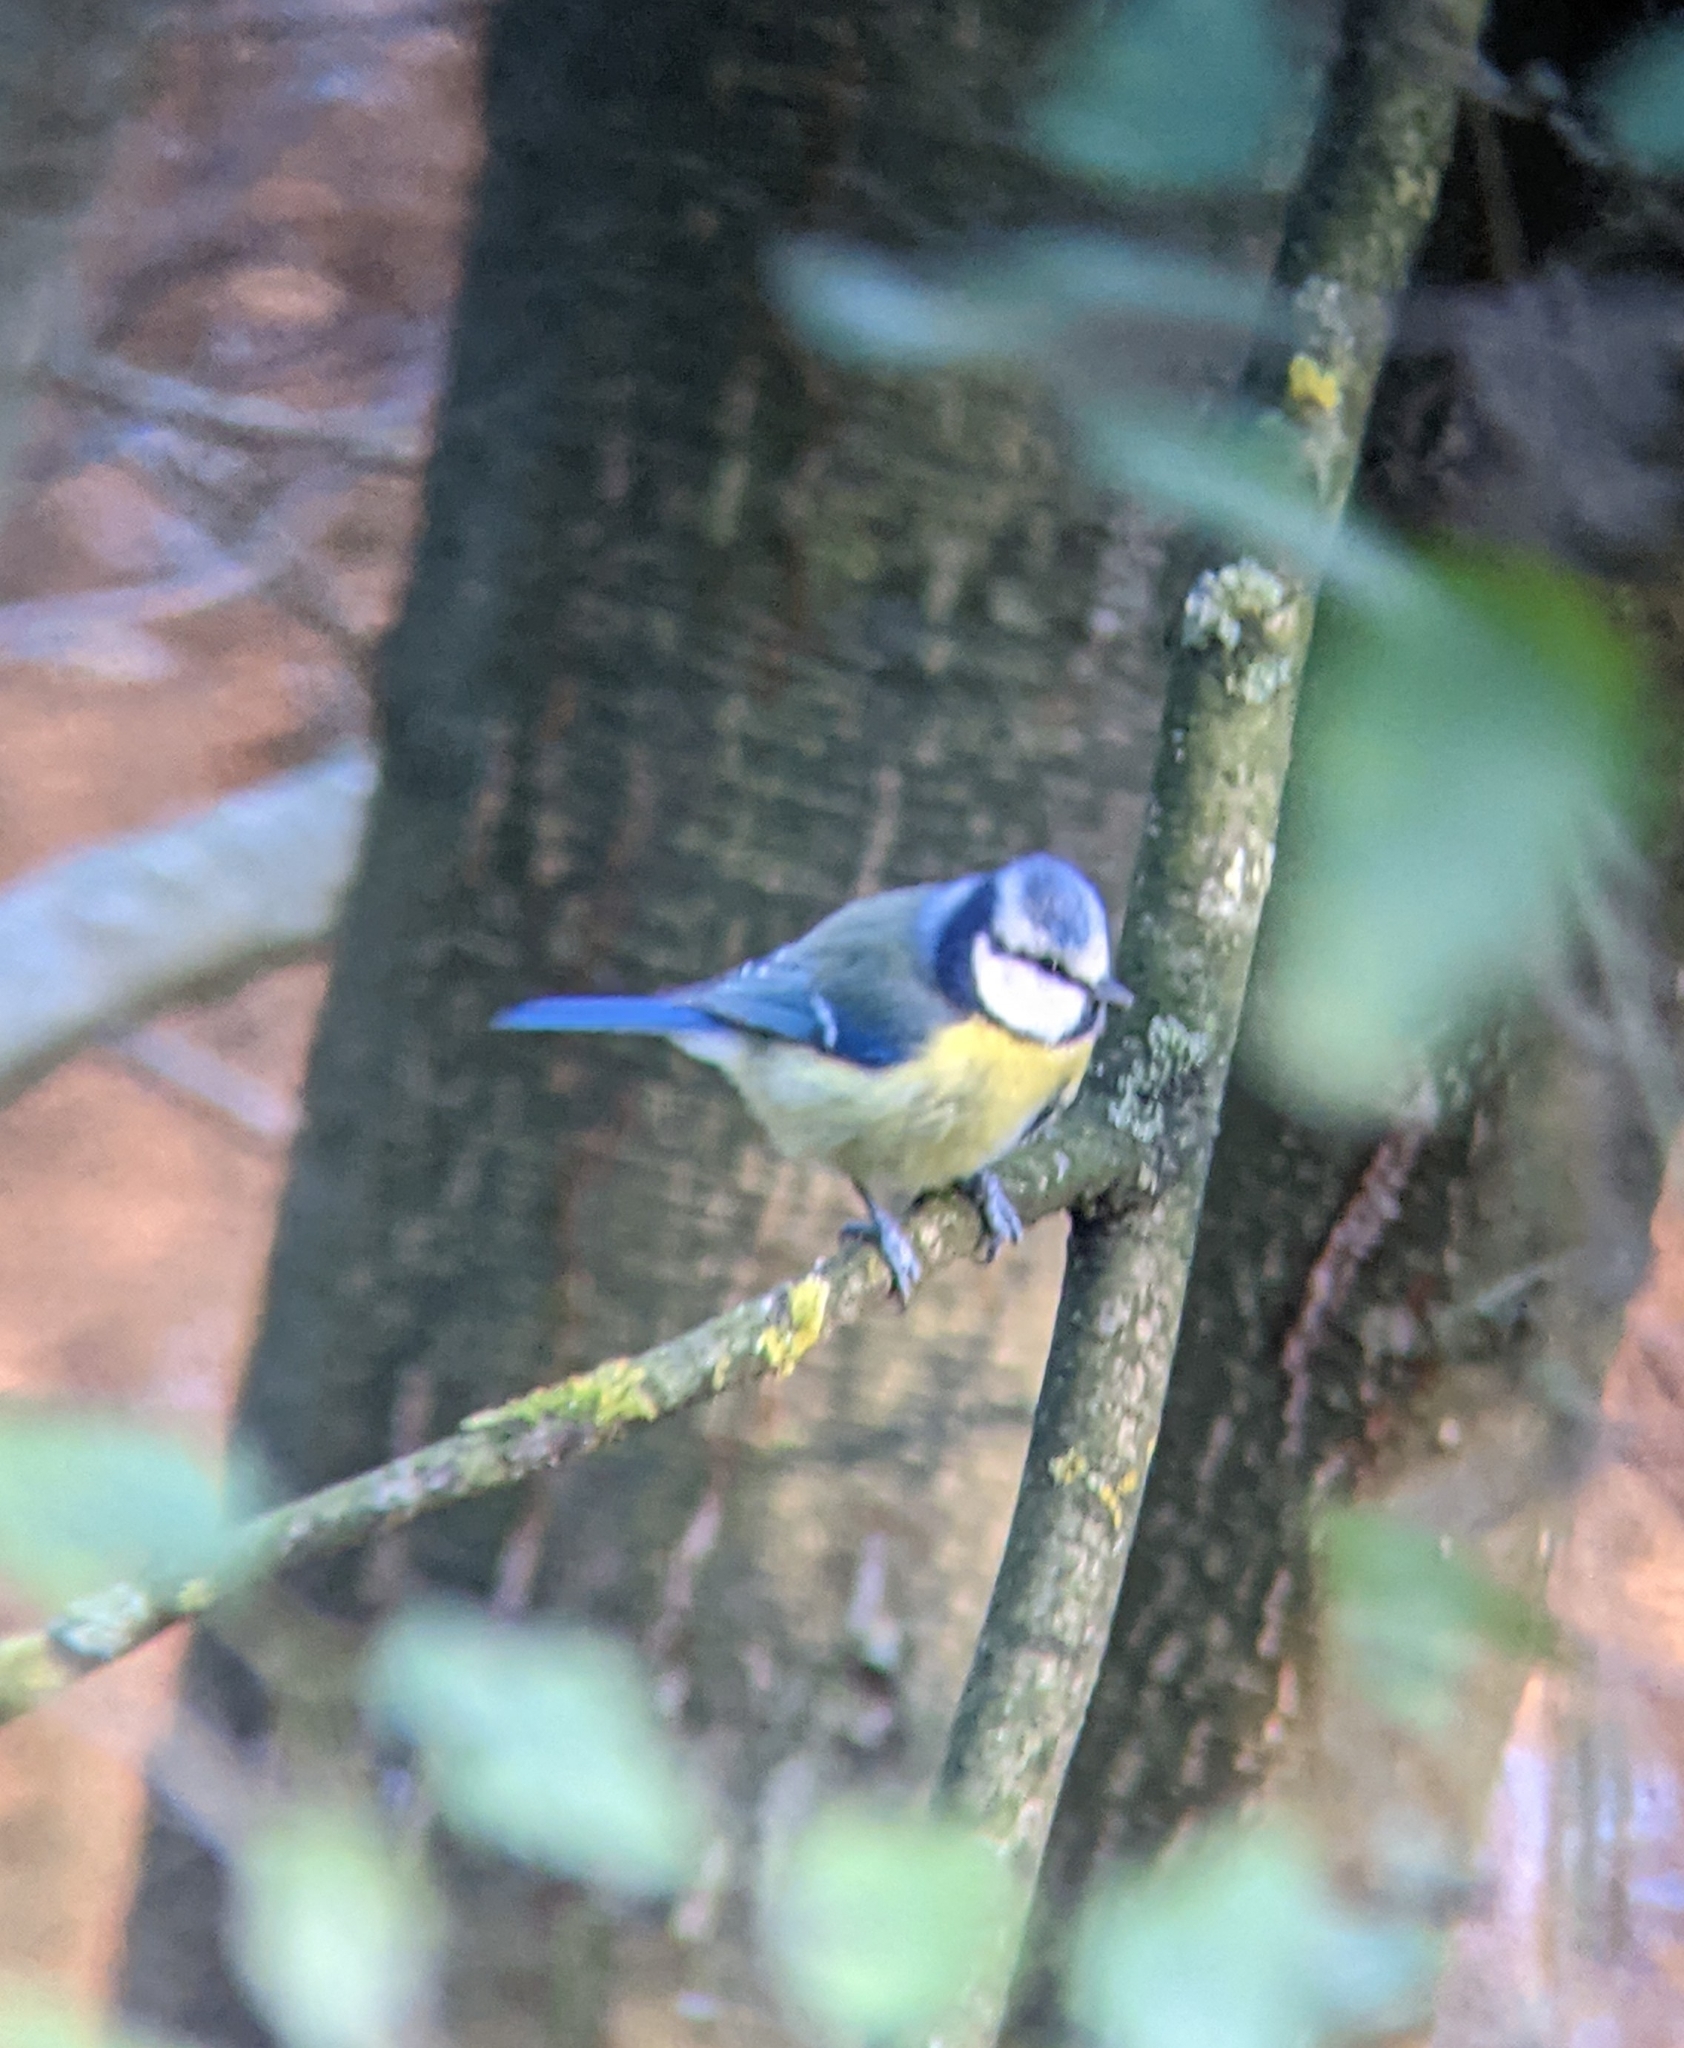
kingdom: Animalia
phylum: Chordata
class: Aves
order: Passeriformes
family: Paridae
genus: Cyanistes
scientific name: Cyanistes caeruleus
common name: Eurasian blue tit
